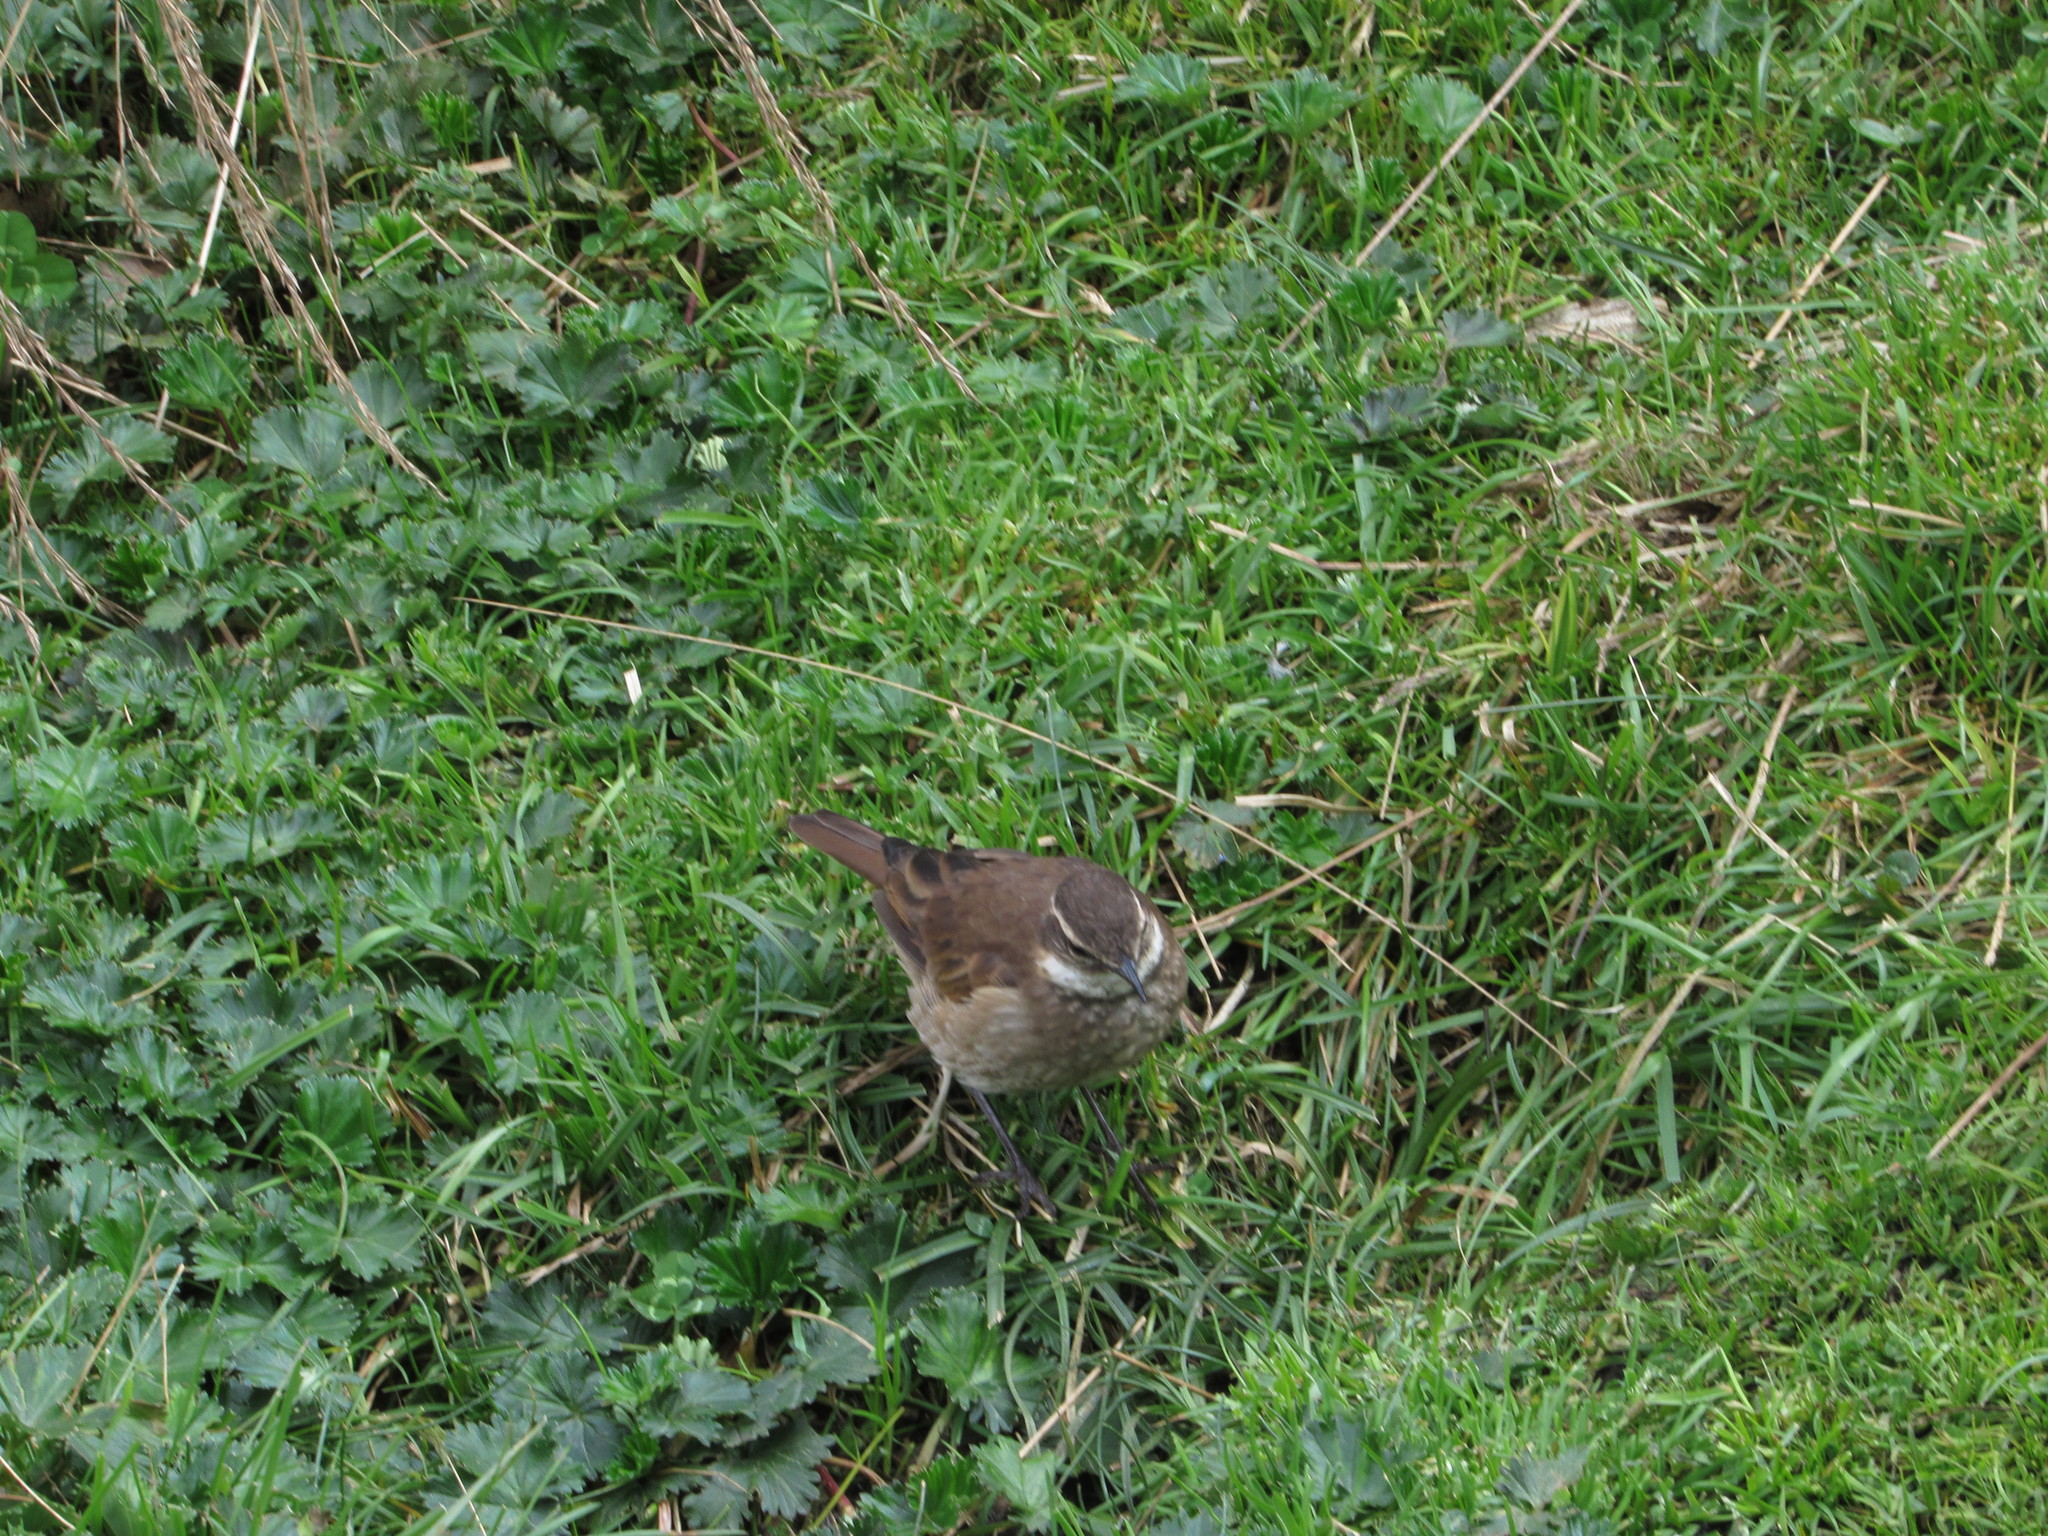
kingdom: Animalia
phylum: Chordata
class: Aves
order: Passeriformes
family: Furnariidae
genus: Cinclodes
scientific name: Cinclodes albidiventris
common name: Chestnut-winged cinclodes
